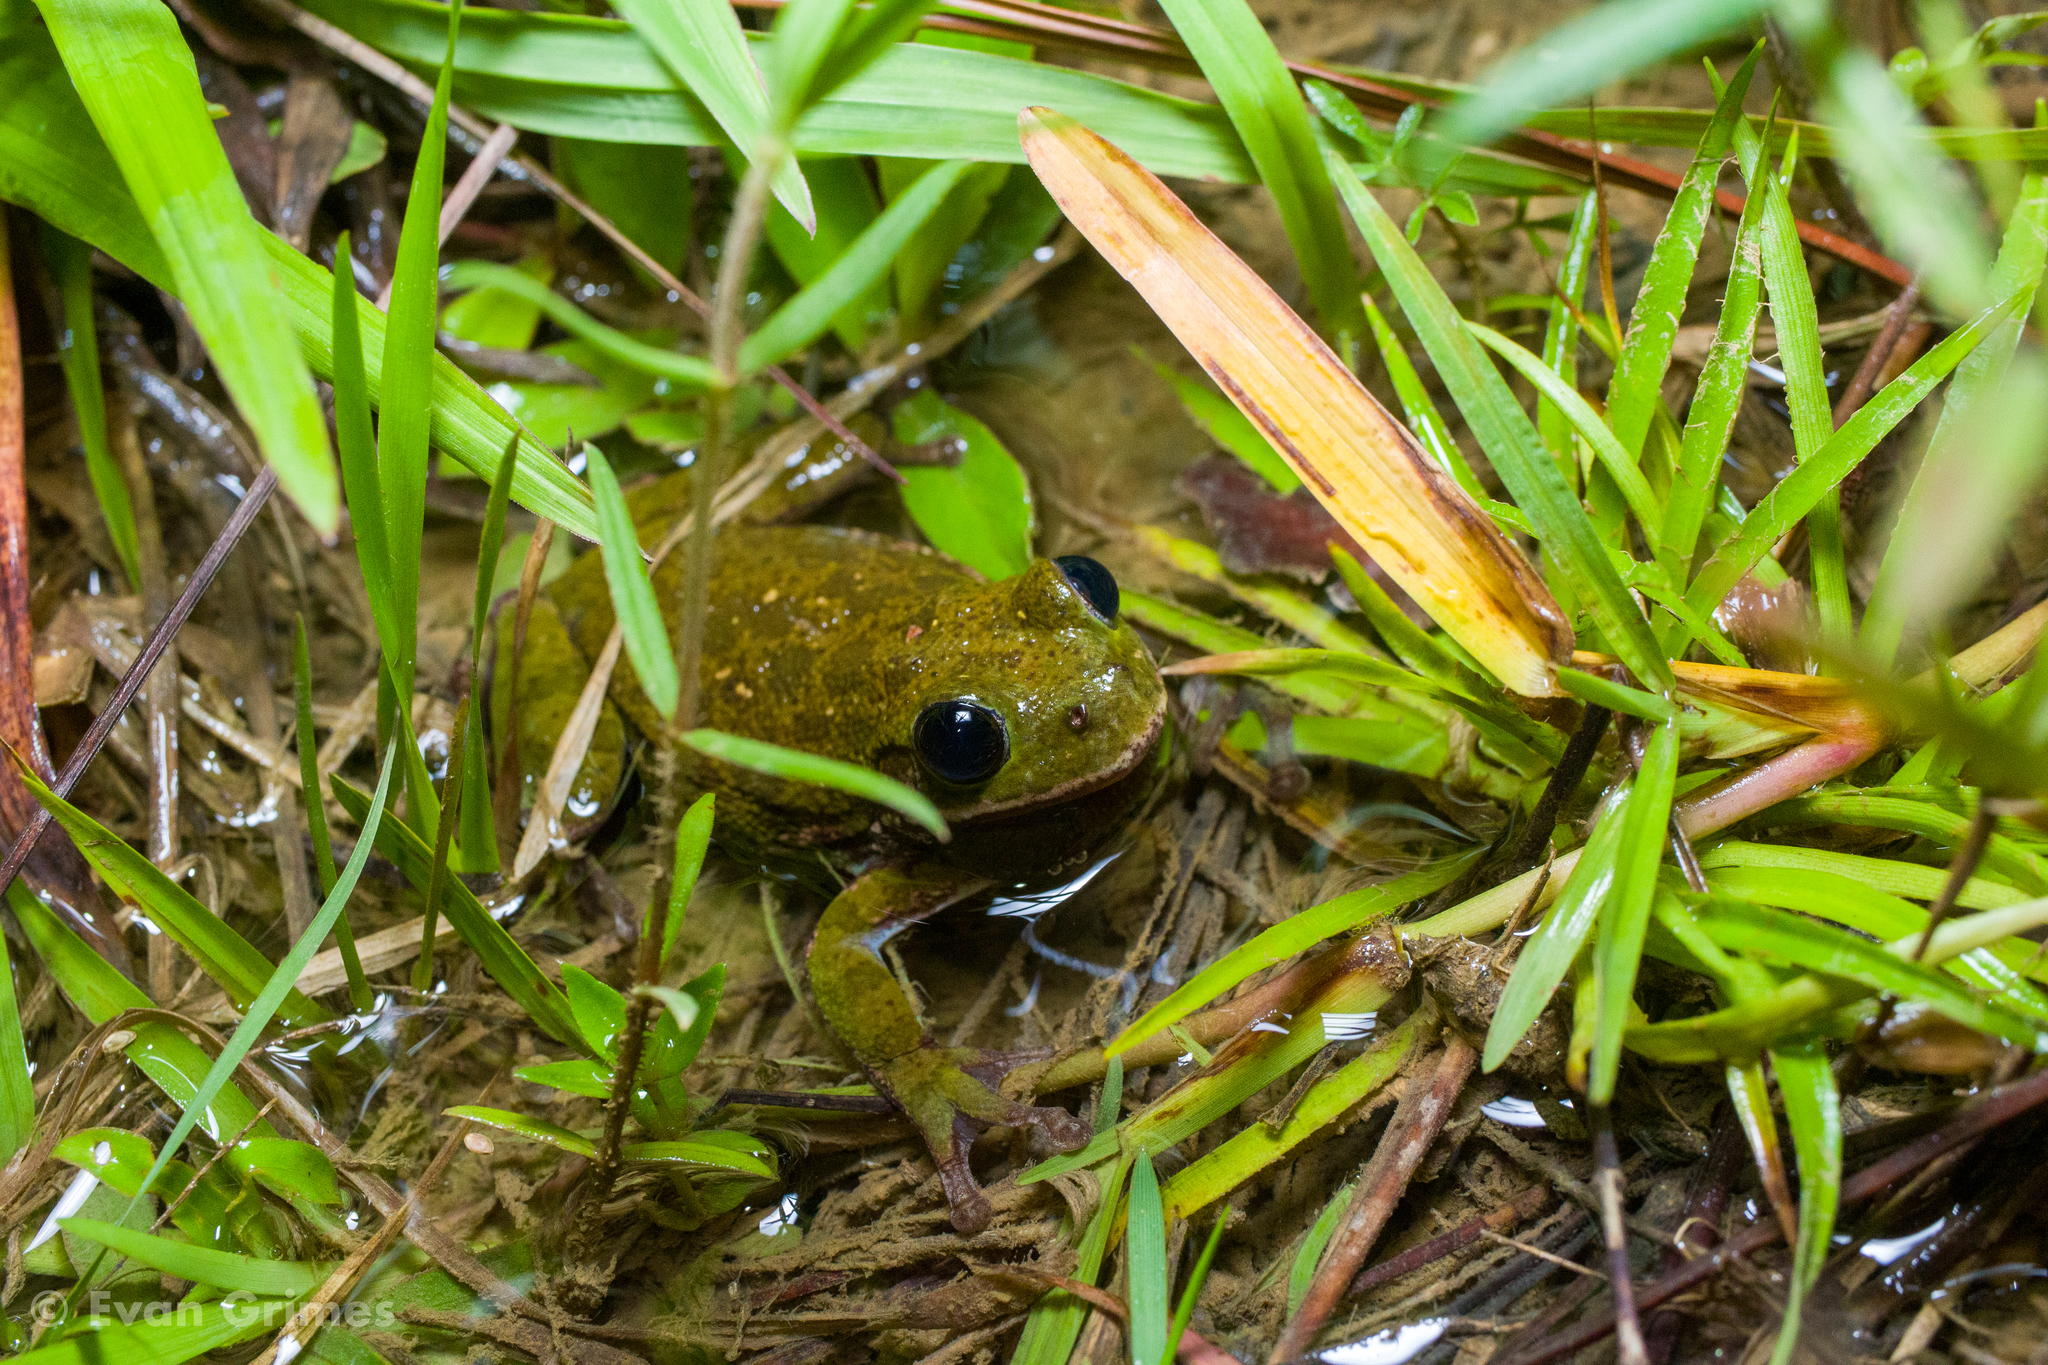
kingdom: Animalia
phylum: Chordata
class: Amphibia
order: Anura
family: Hylidae
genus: Dryophytes
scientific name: Dryophytes gratiosus
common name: Barking treefrog
